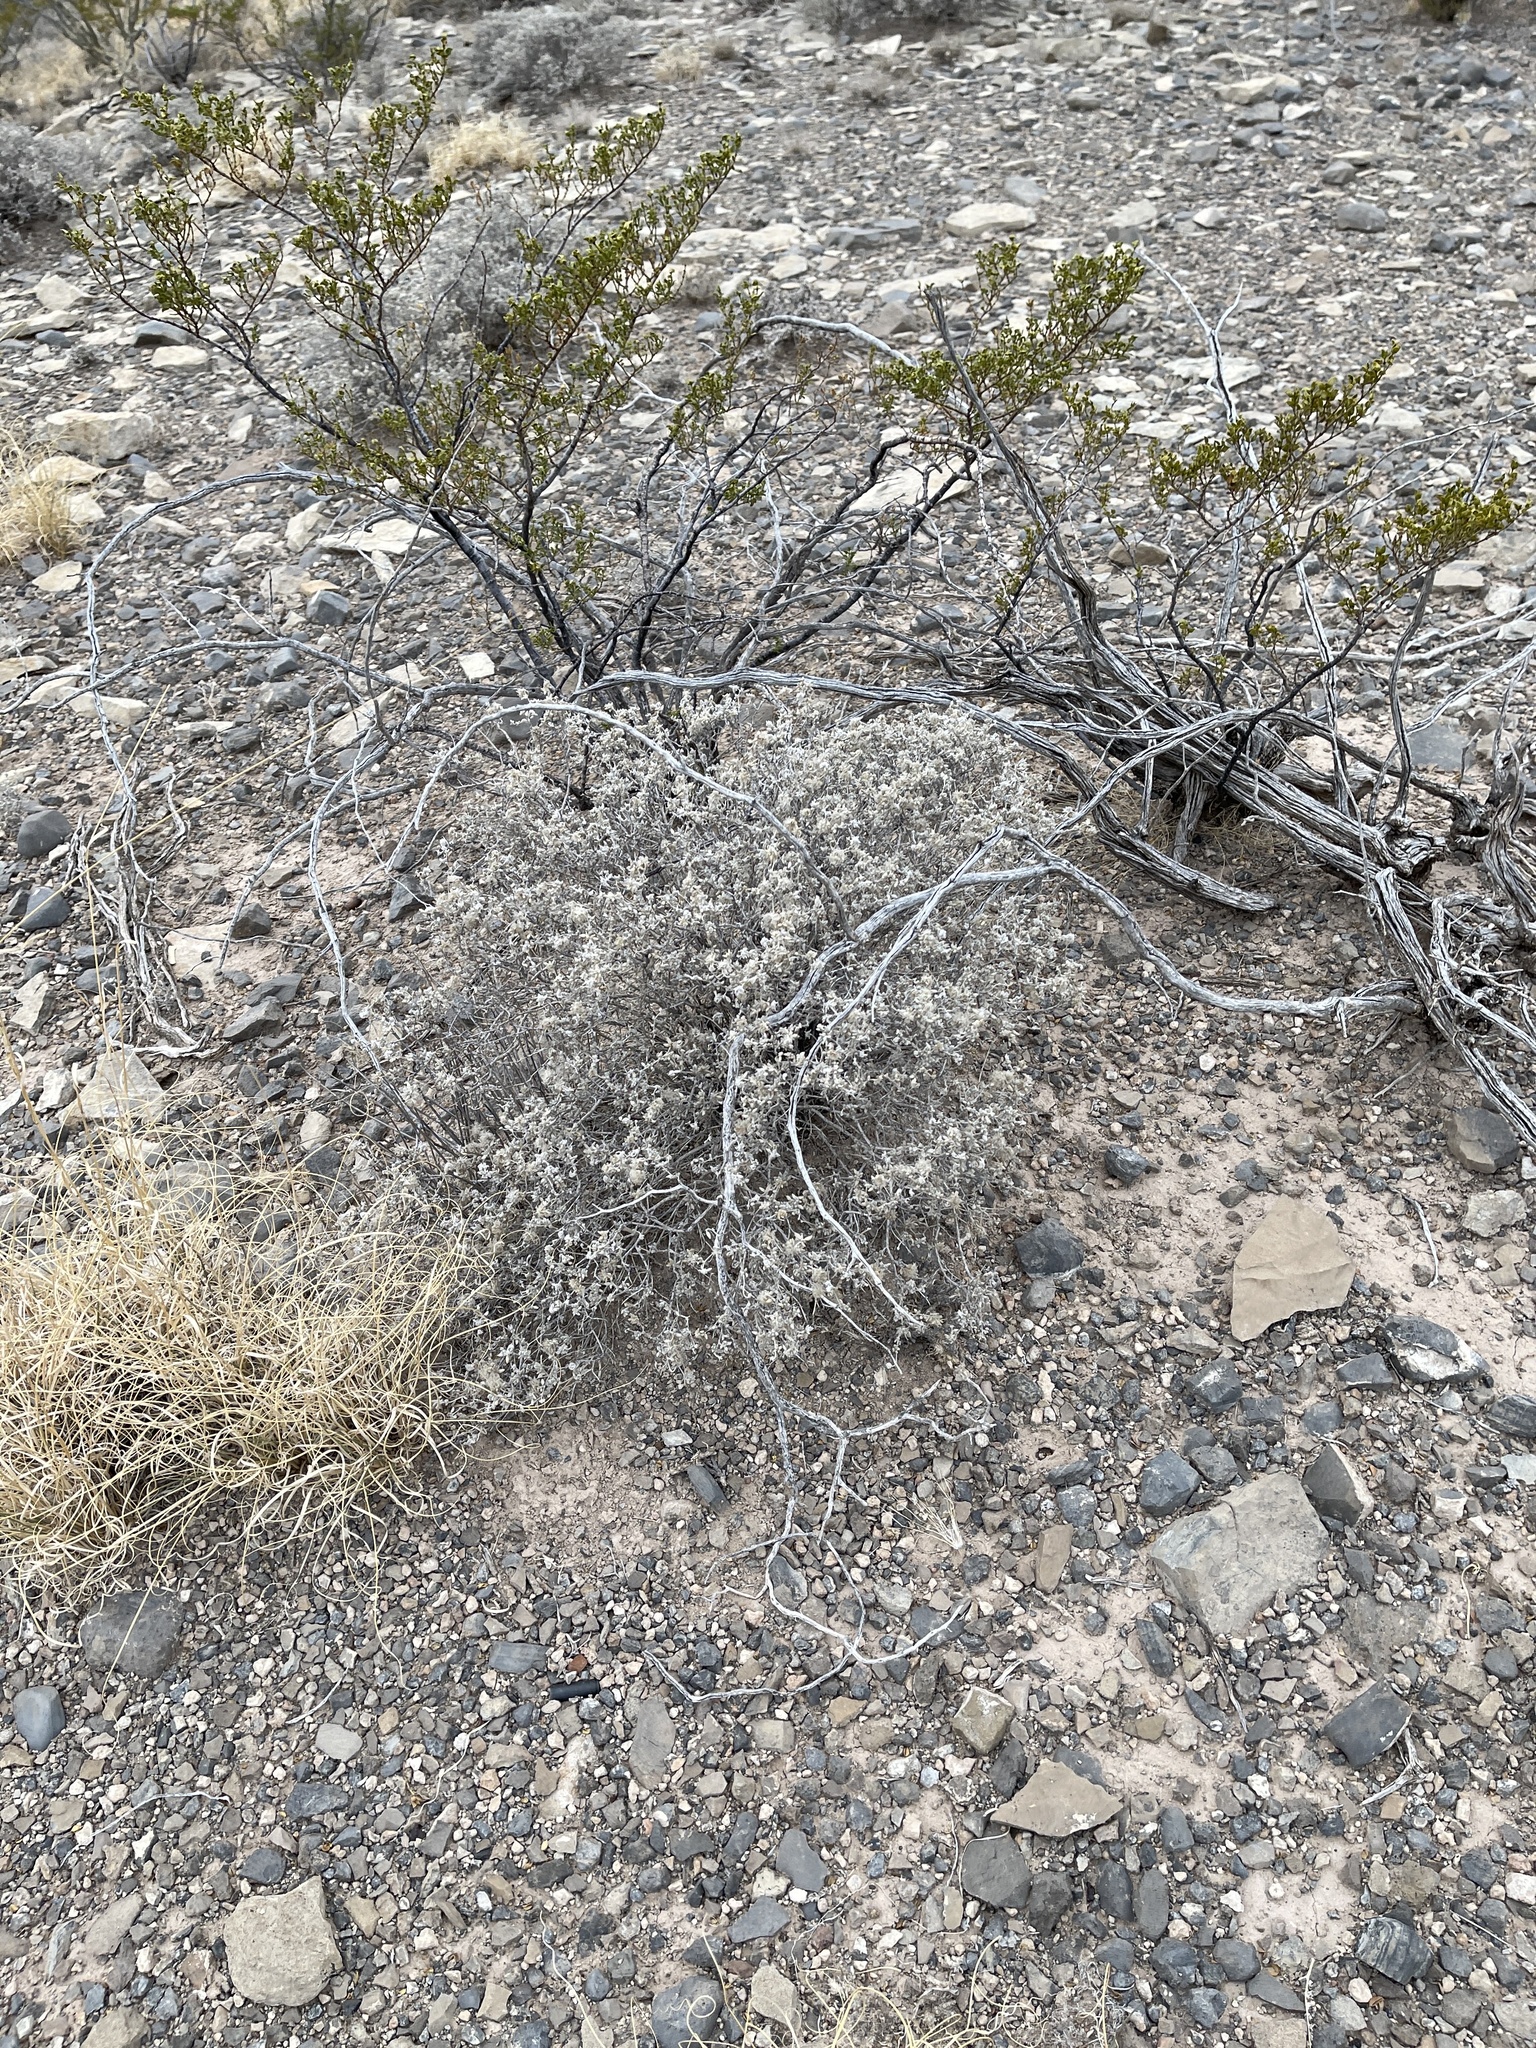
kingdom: Plantae
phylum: Tracheophyta
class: Magnoliopsida
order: Boraginales
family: Ehretiaceae
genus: Tiquilia
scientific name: Tiquilia greggii
